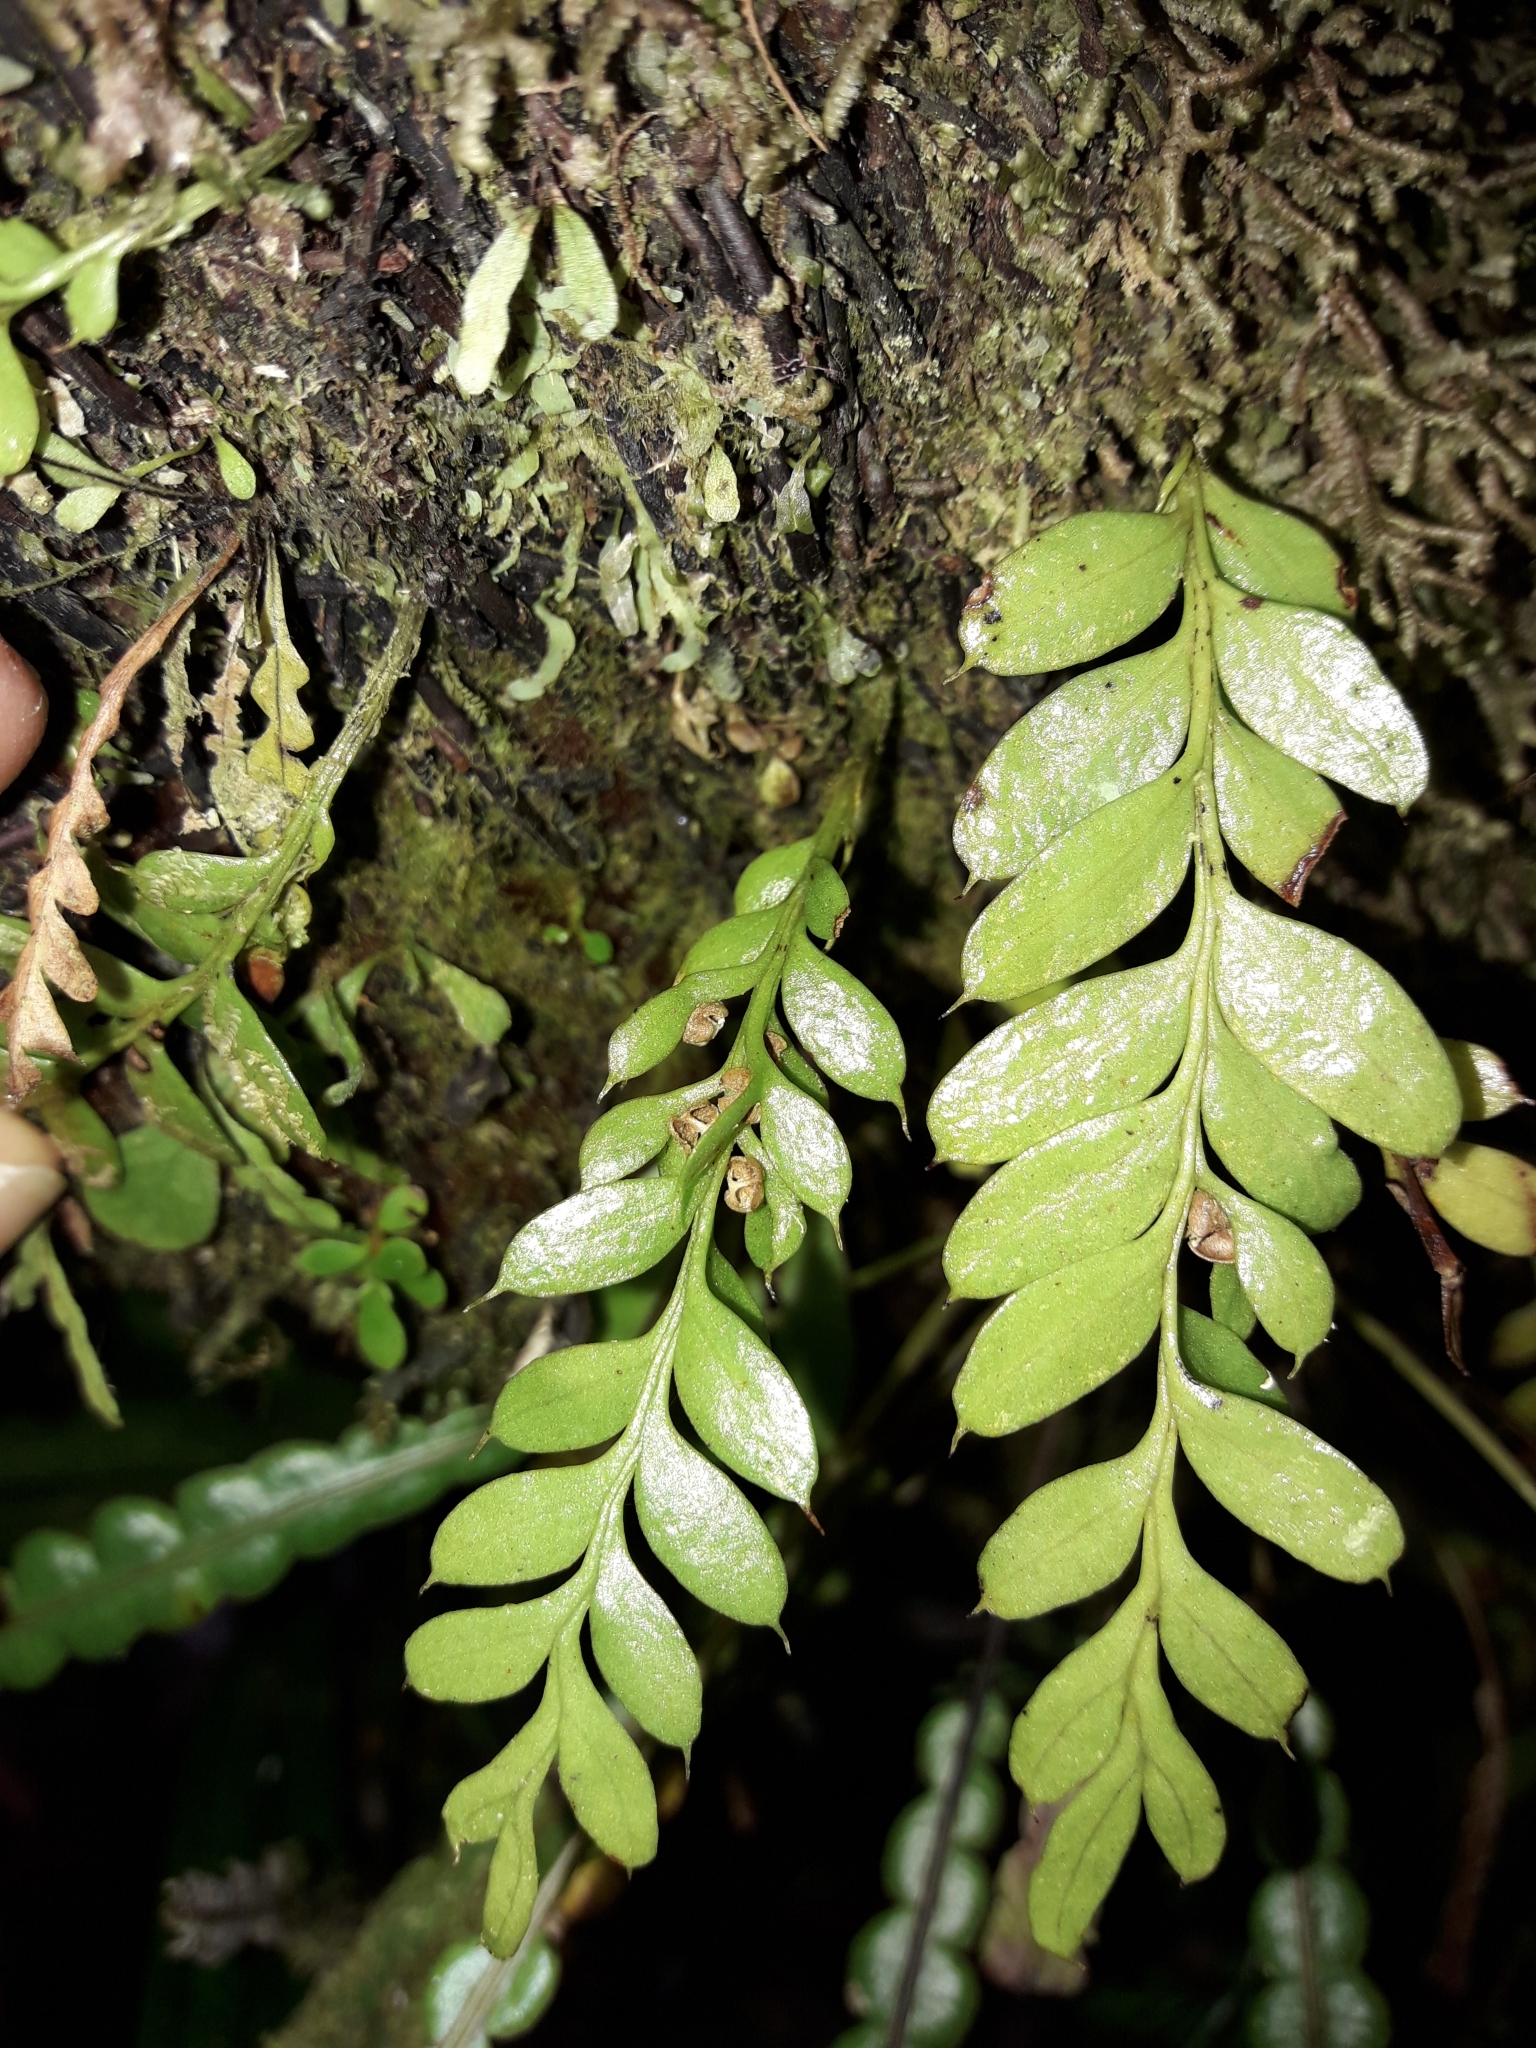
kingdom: Plantae
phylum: Tracheophyta
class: Polypodiopsida
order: Psilotales
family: Psilotaceae
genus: Tmesipteris
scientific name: Tmesipteris lanceolata
